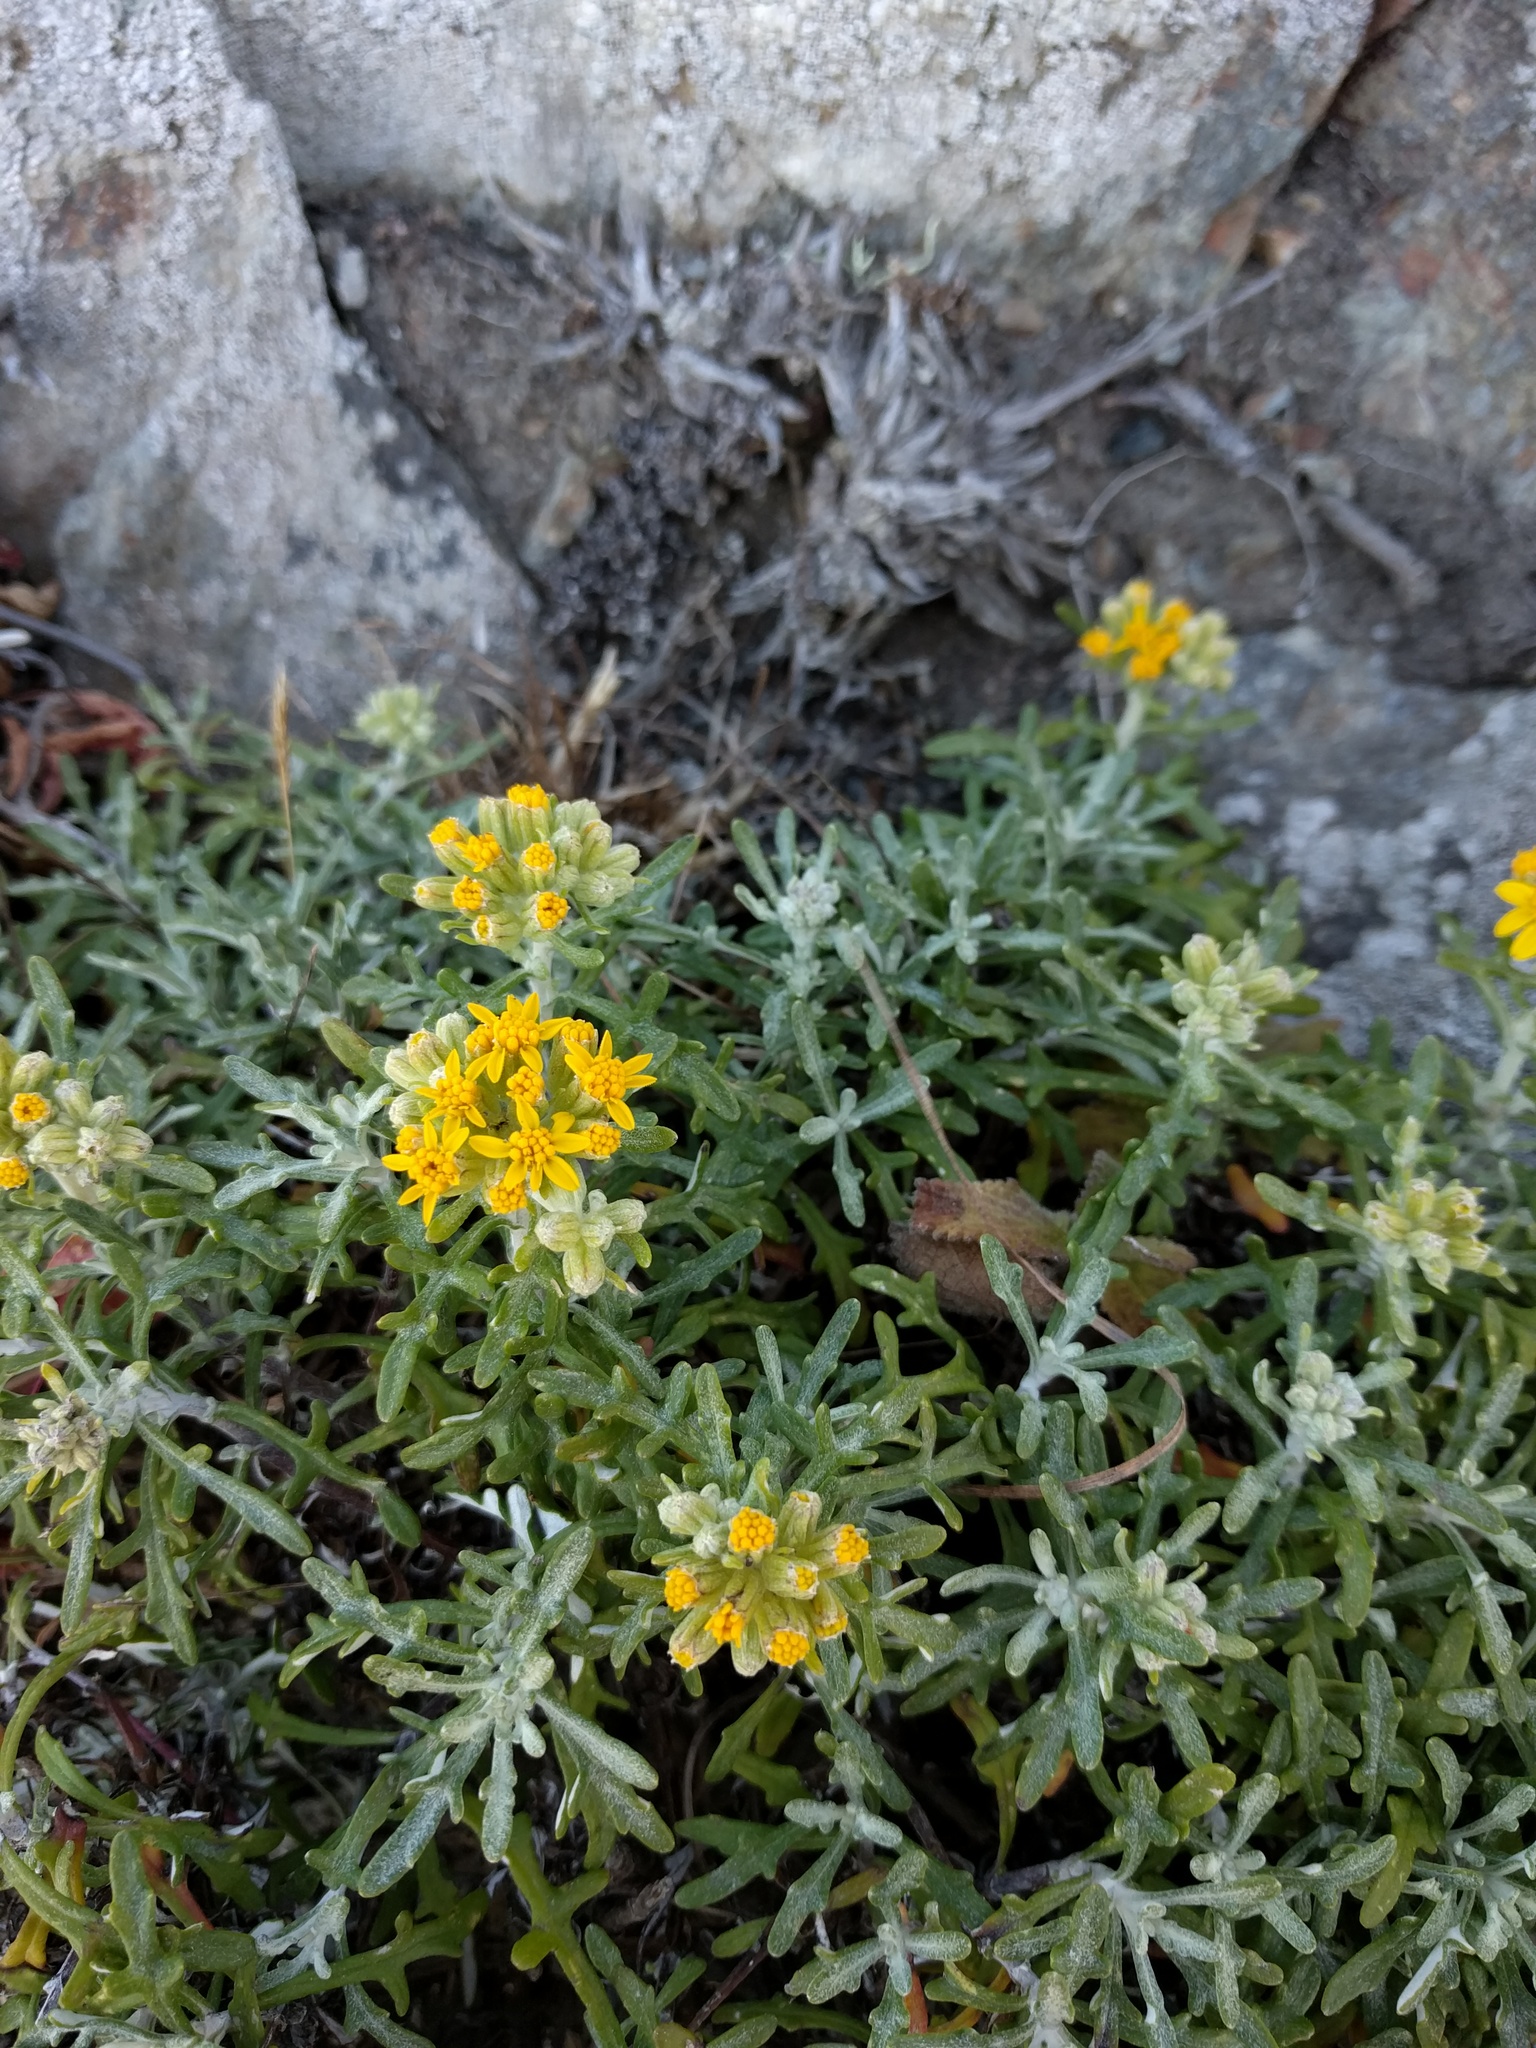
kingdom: Plantae
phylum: Tracheophyta
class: Magnoliopsida
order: Asterales
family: Asteraceae
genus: Eriophyllum
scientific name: Eriophyllum staechadifolium
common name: Lizardtail
